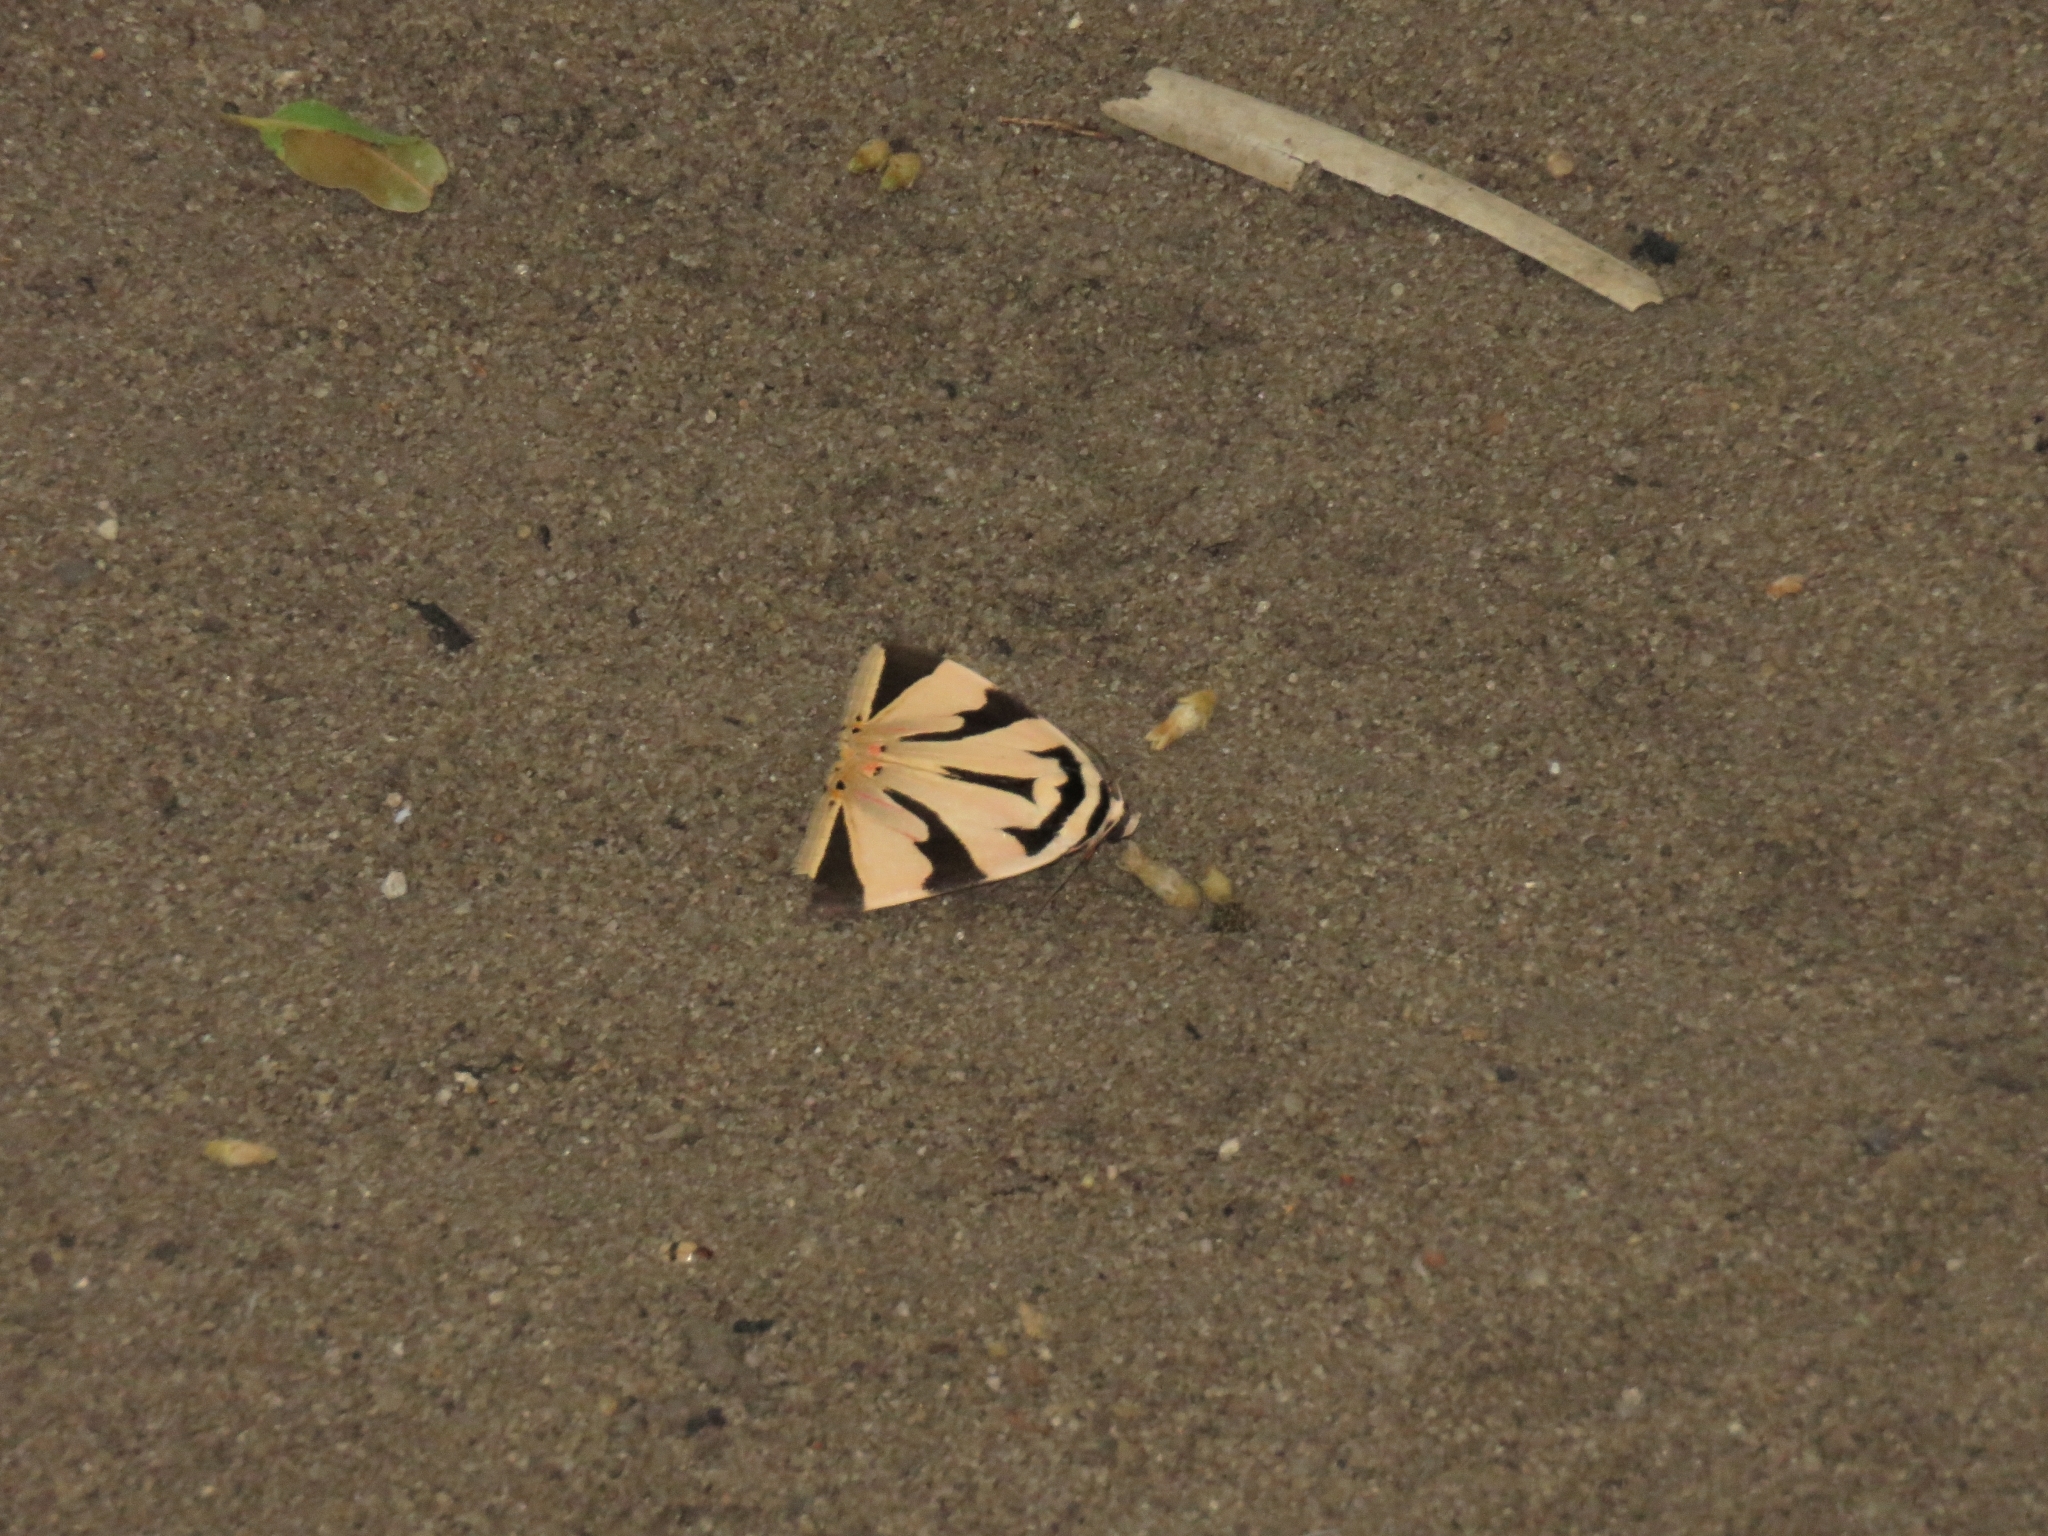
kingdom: Animalia
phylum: Arthropoda
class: Insecta
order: Lepidoptera
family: Erebidae
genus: Attatha
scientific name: Attatha superba
